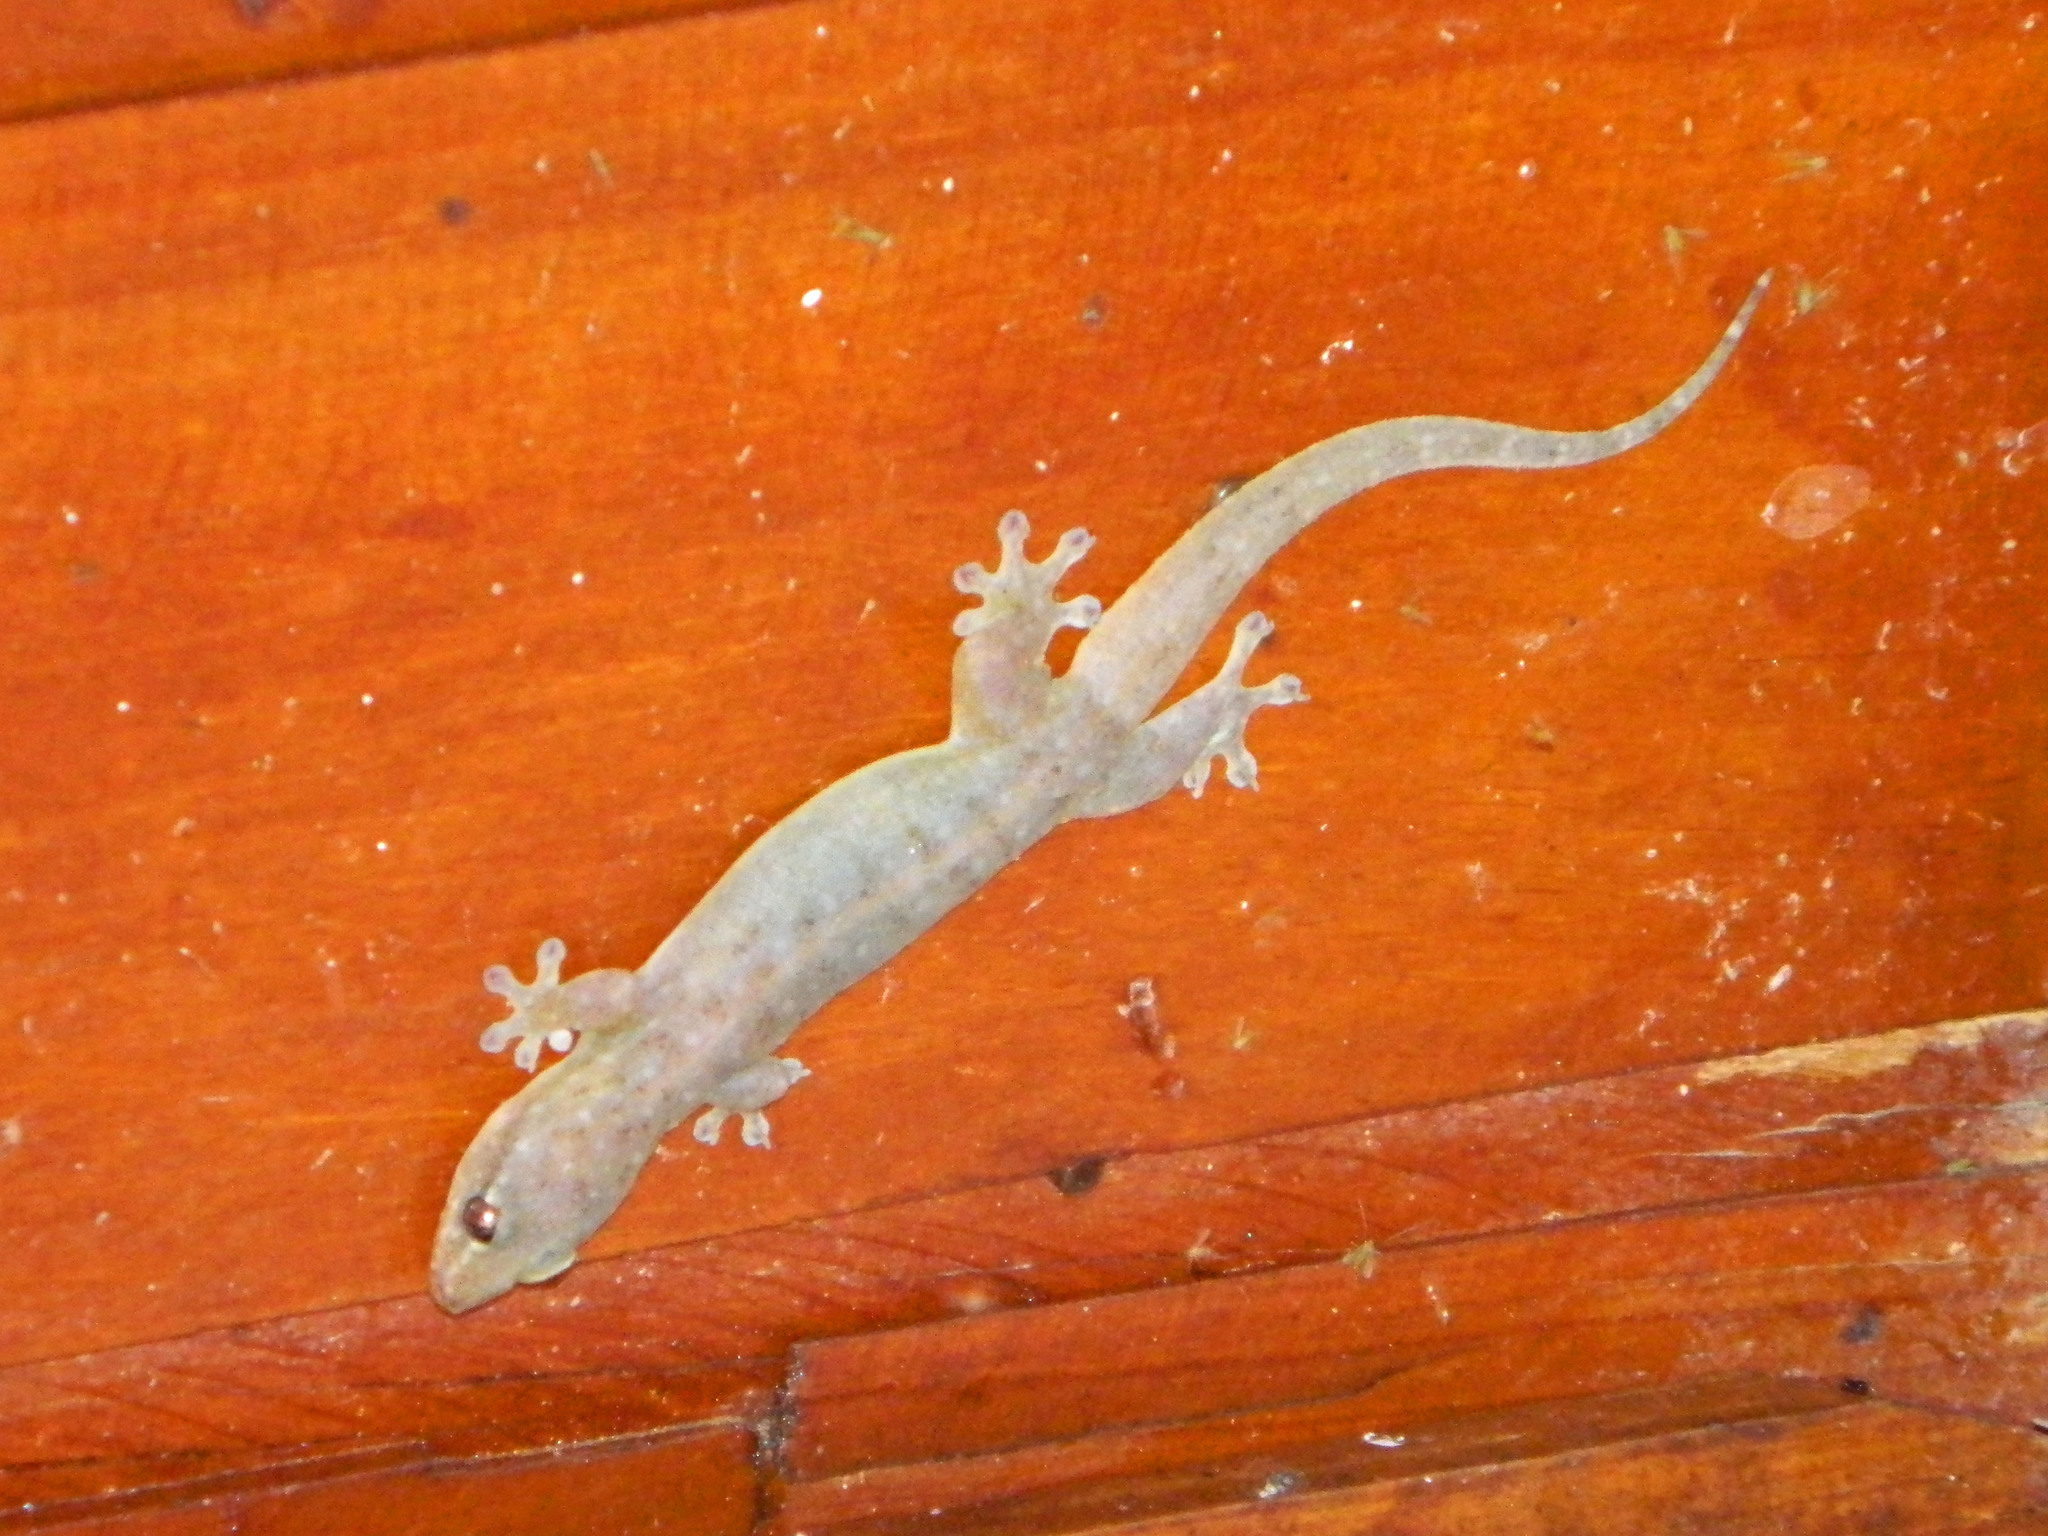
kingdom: Animalia
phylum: Chordata
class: Squamata
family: Gekkonidae
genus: Gehyra
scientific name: Gehyra mutilata
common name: Stump-toed gecko
